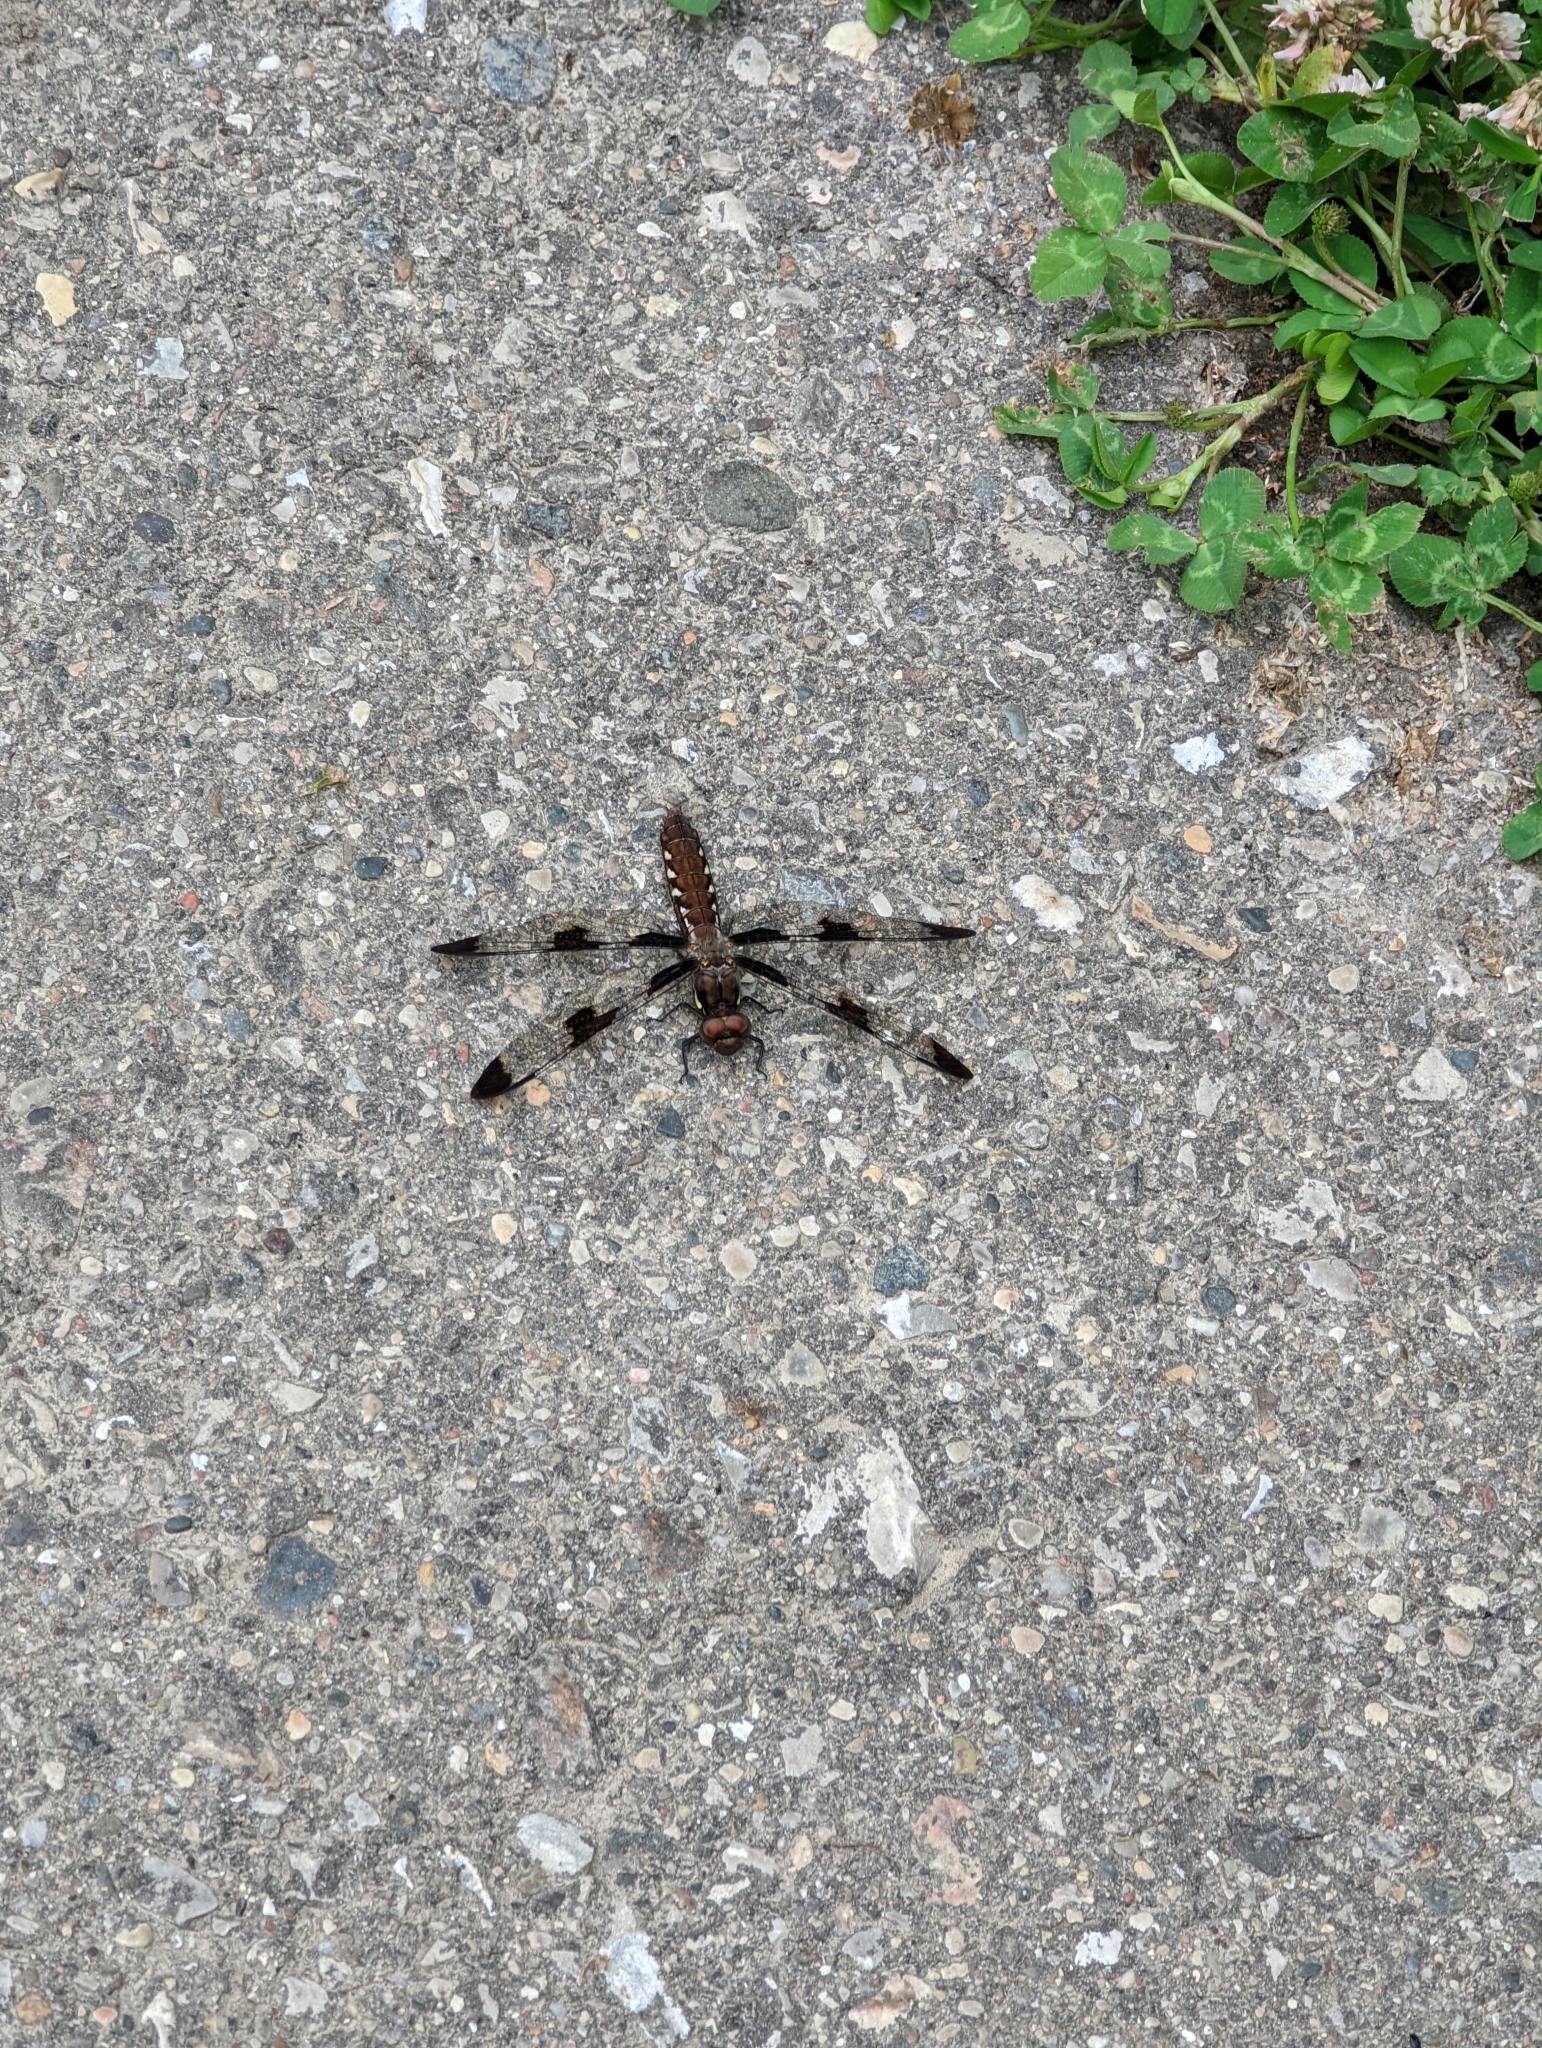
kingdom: Animalia
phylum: Arthropoda
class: Insecta
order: Odonata
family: Libellulidae
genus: Plathemis
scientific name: Plathemis lydia
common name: Common whitetail
